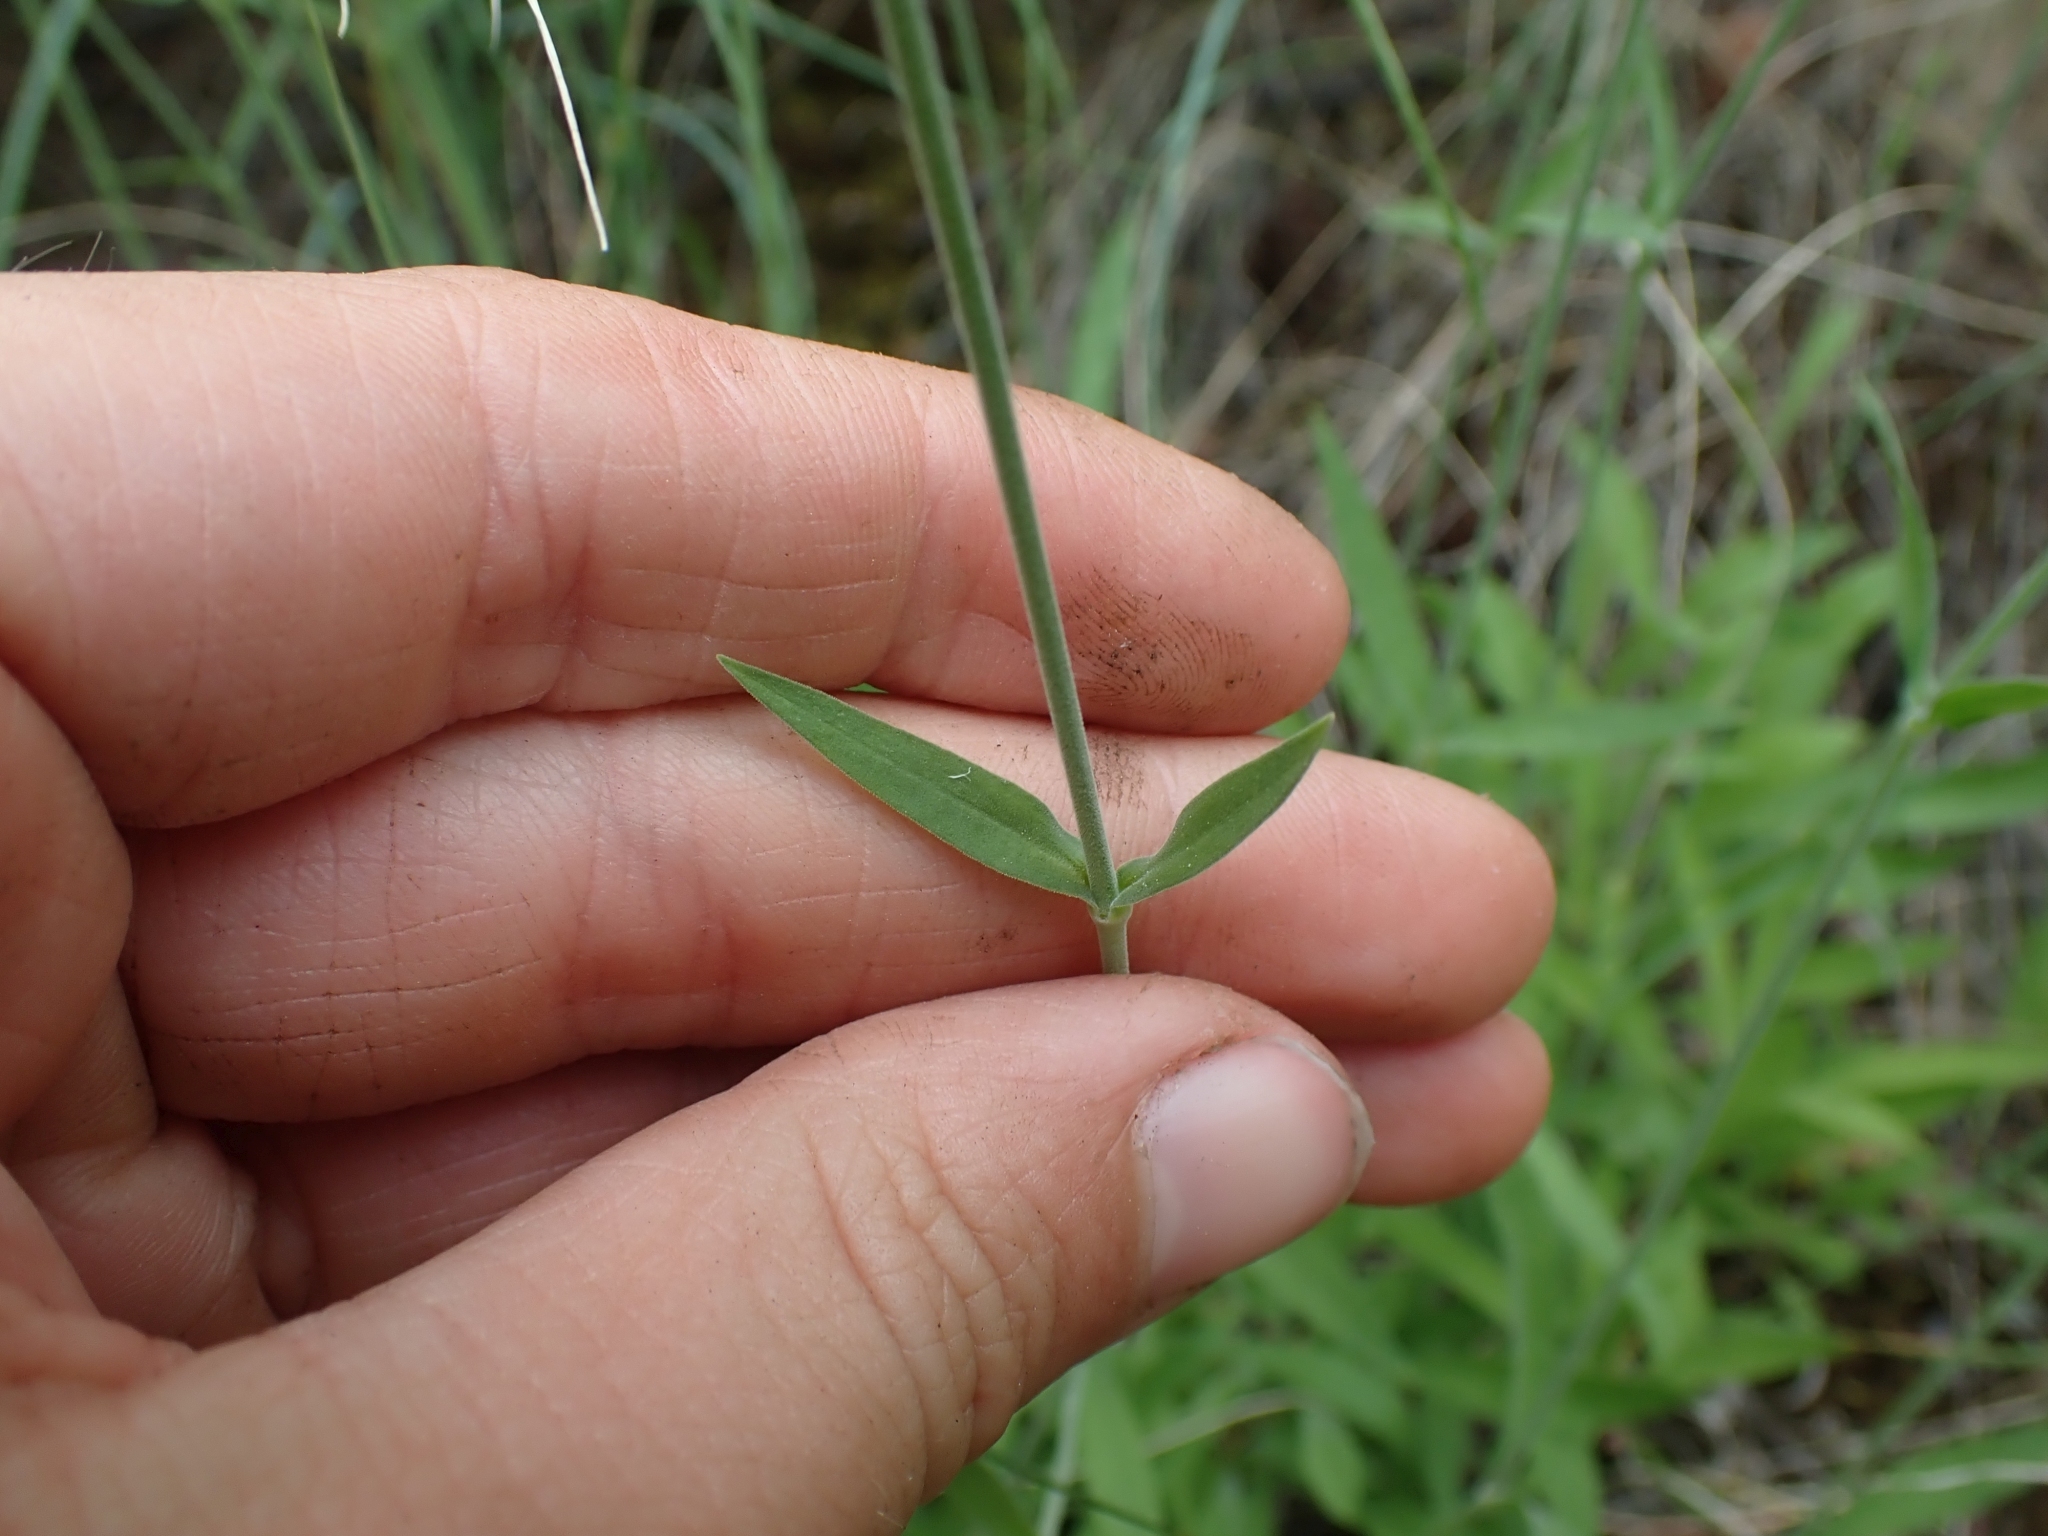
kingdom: Plantae
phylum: Tracheophyta
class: Magnoliopsida
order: Caryophyllales
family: Caryophyllaceae
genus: Silene
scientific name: Silene latifolia
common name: White campion
